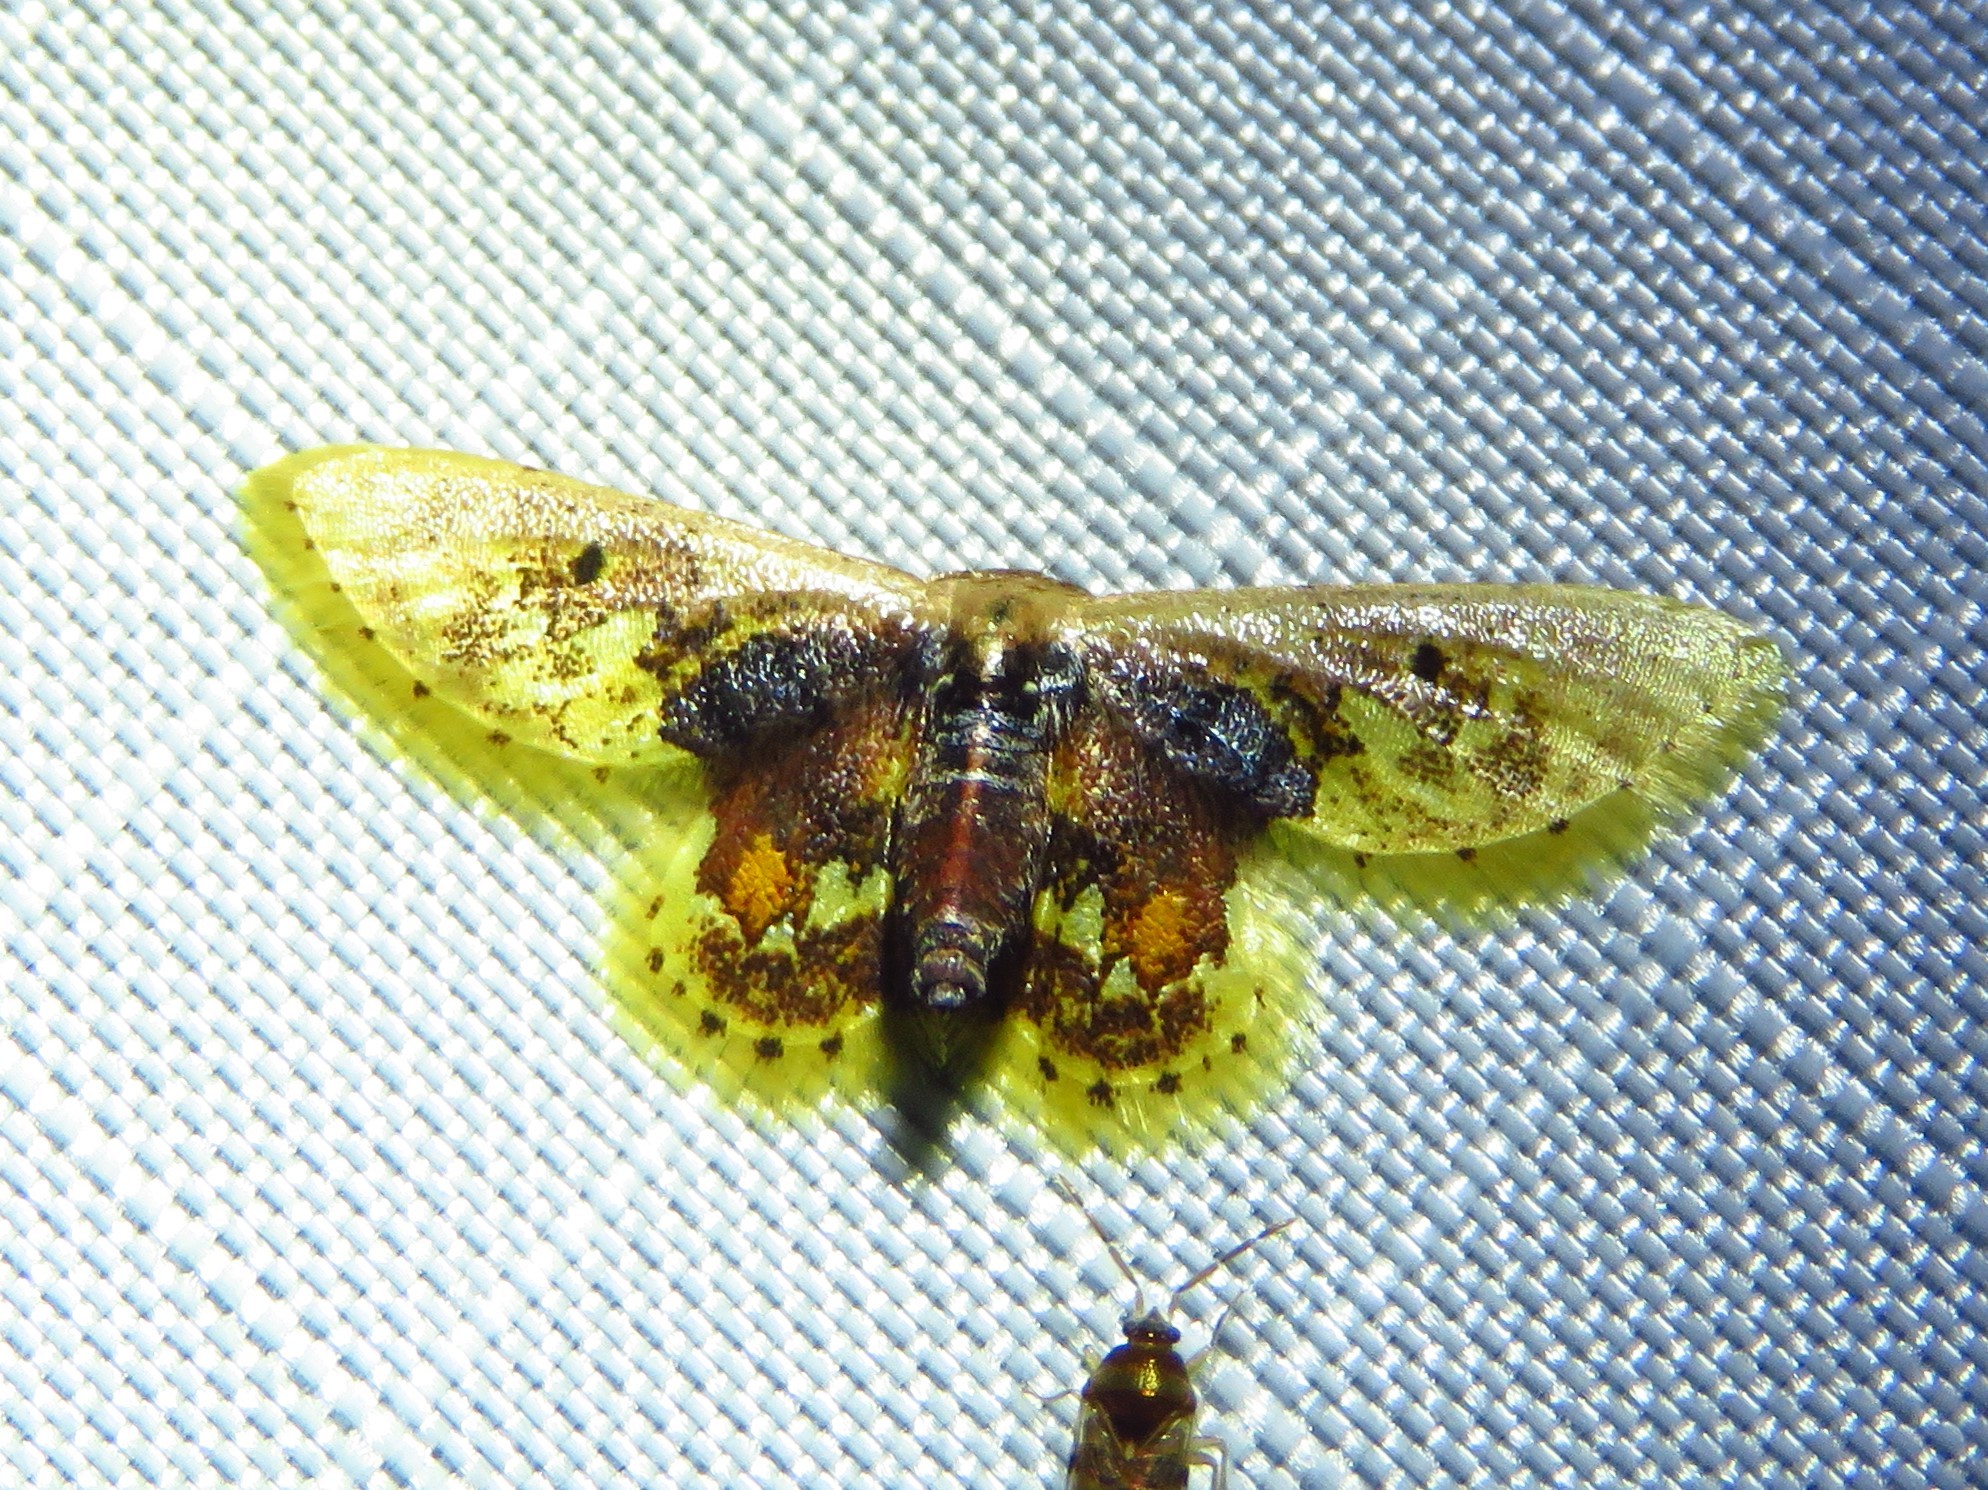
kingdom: Animalia
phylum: Arthropoda
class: Insecta
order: Lepidoptera
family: Geometridae
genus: Idaea
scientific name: Idaea helleria
